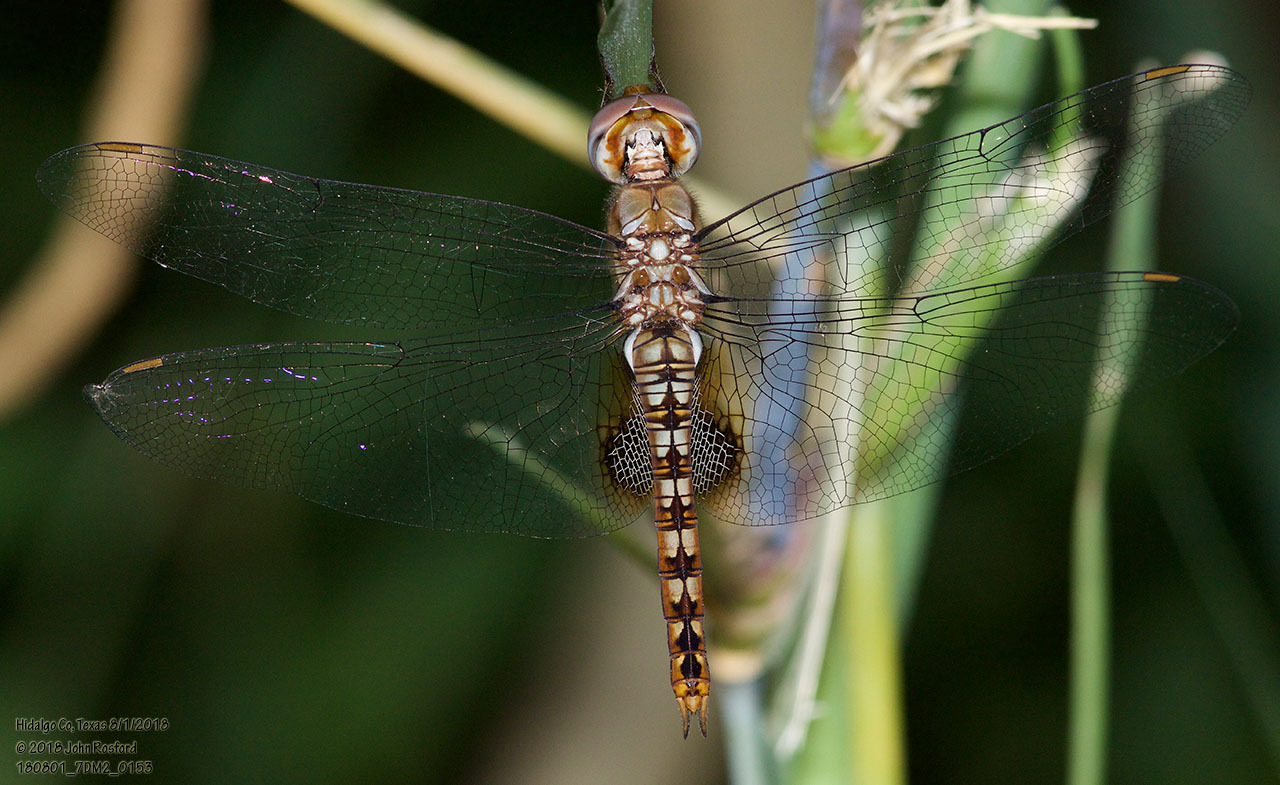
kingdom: Animalia
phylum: Arthropoda
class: Insecta
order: Odonata
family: Libellulidae
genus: Pantala
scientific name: Pantala hymenaea
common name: Spot-winged glider
